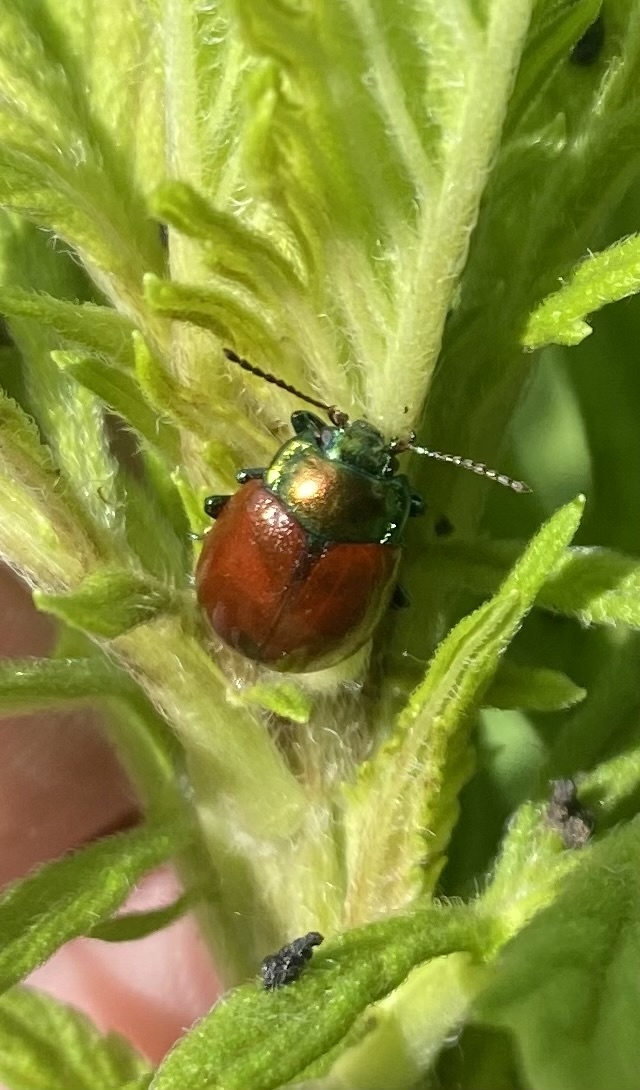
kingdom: Animalia
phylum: Arthropoda
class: Insecta
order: Coleoptera
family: Chrysomelidae
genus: Chrysomela
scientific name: Chrysomela polita
